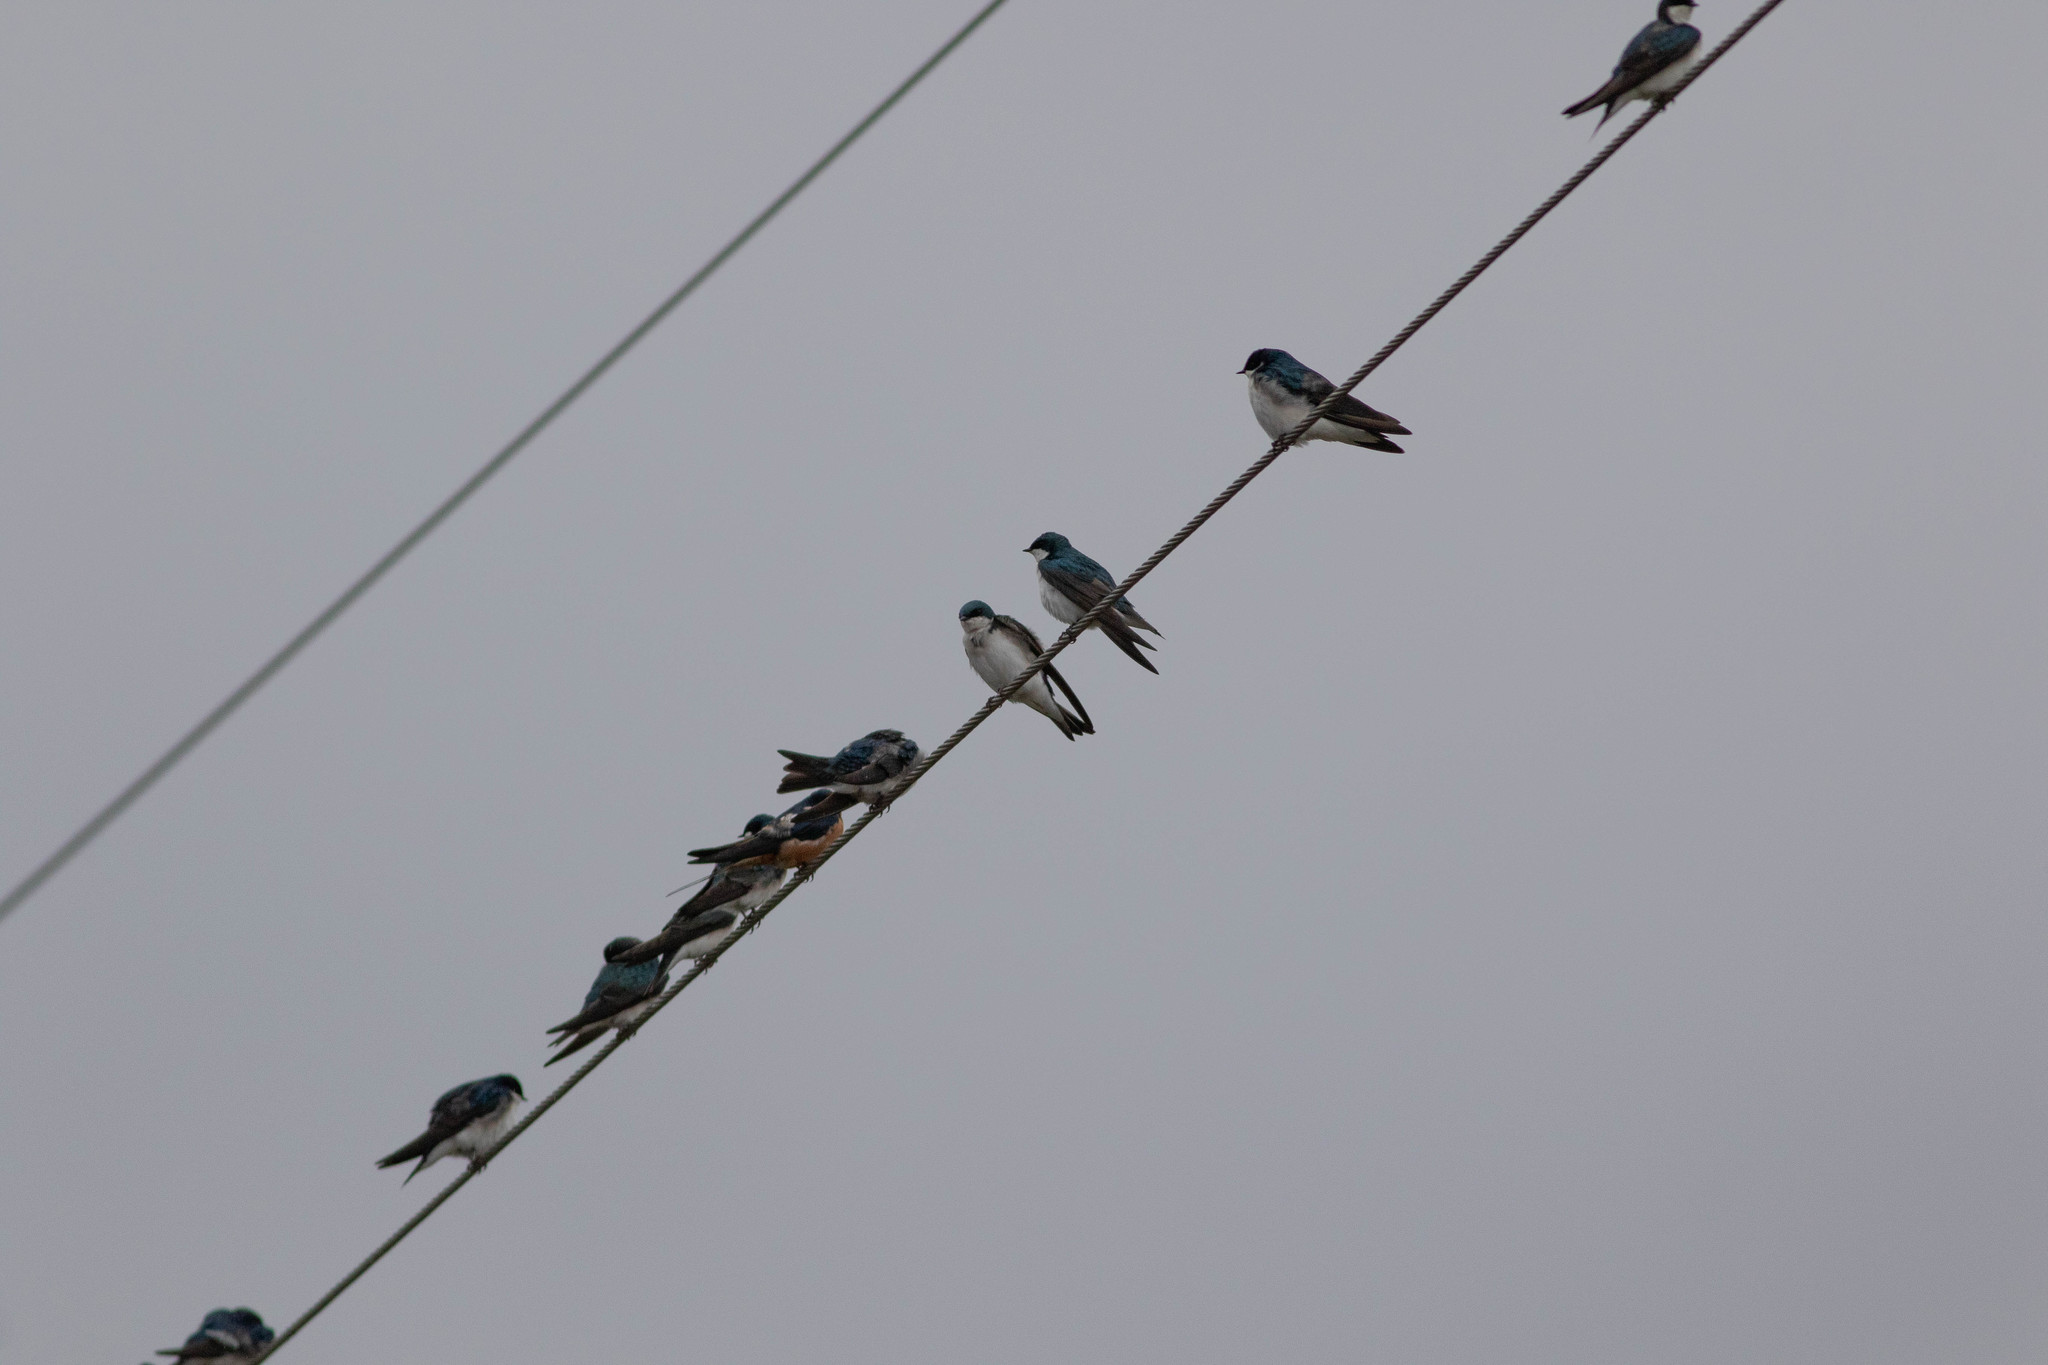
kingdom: Animalia
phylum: Chordata
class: Aves
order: Passeriformes
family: Hirundinidae
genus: Tachycineta
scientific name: Tachycineta bicolor
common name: Tree swallow
